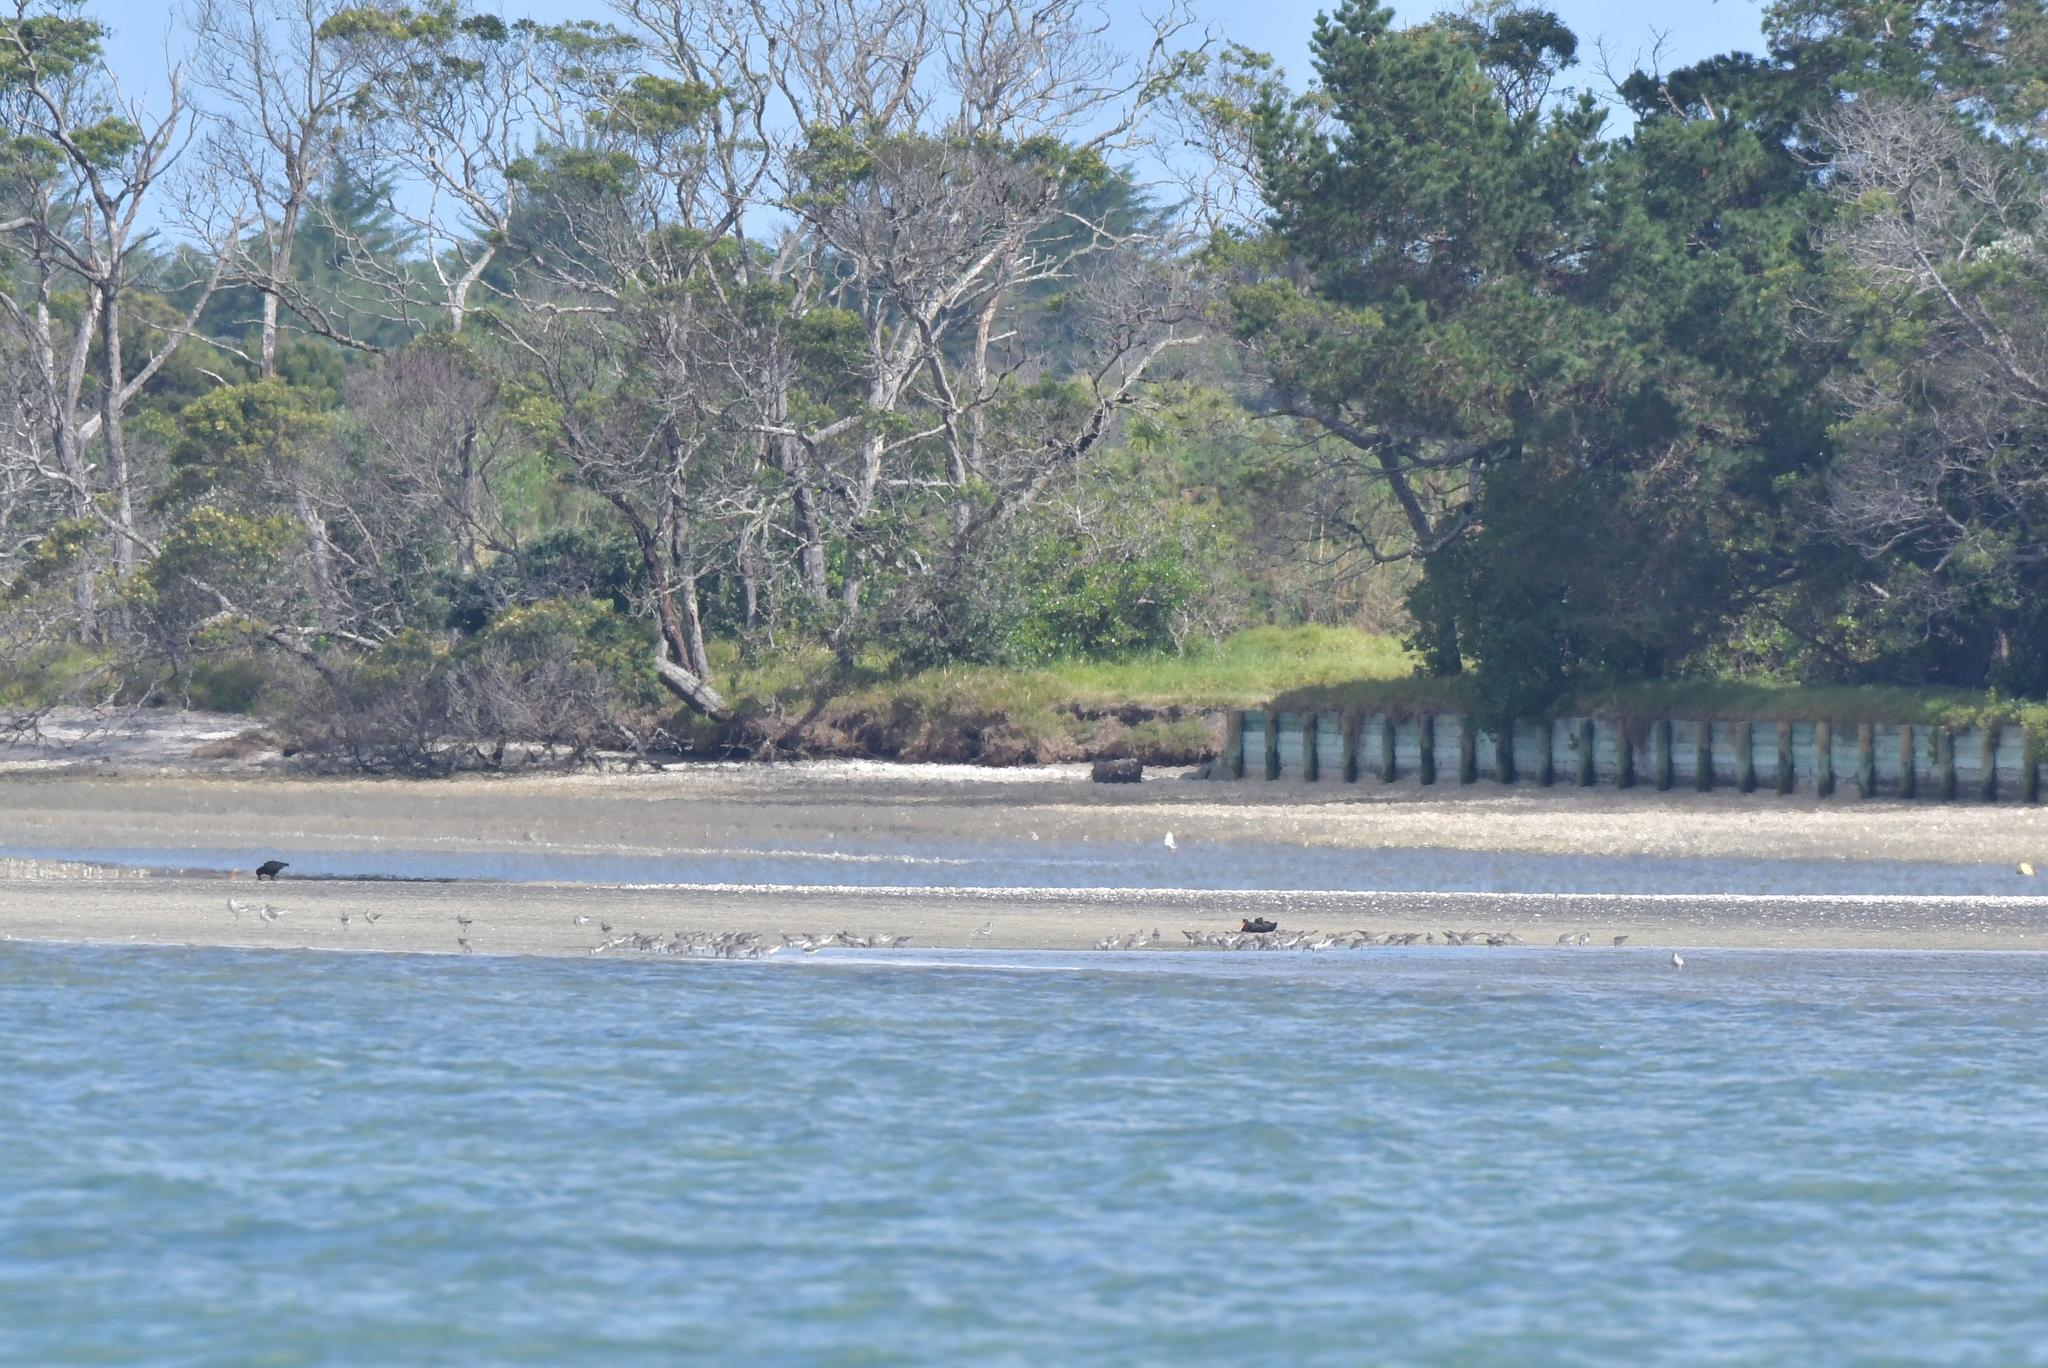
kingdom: Animalia
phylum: Chordata
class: Aves
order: Charadriiformes
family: Scolopacidae
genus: Calidris
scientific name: Calidris canutus
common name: Red knot
